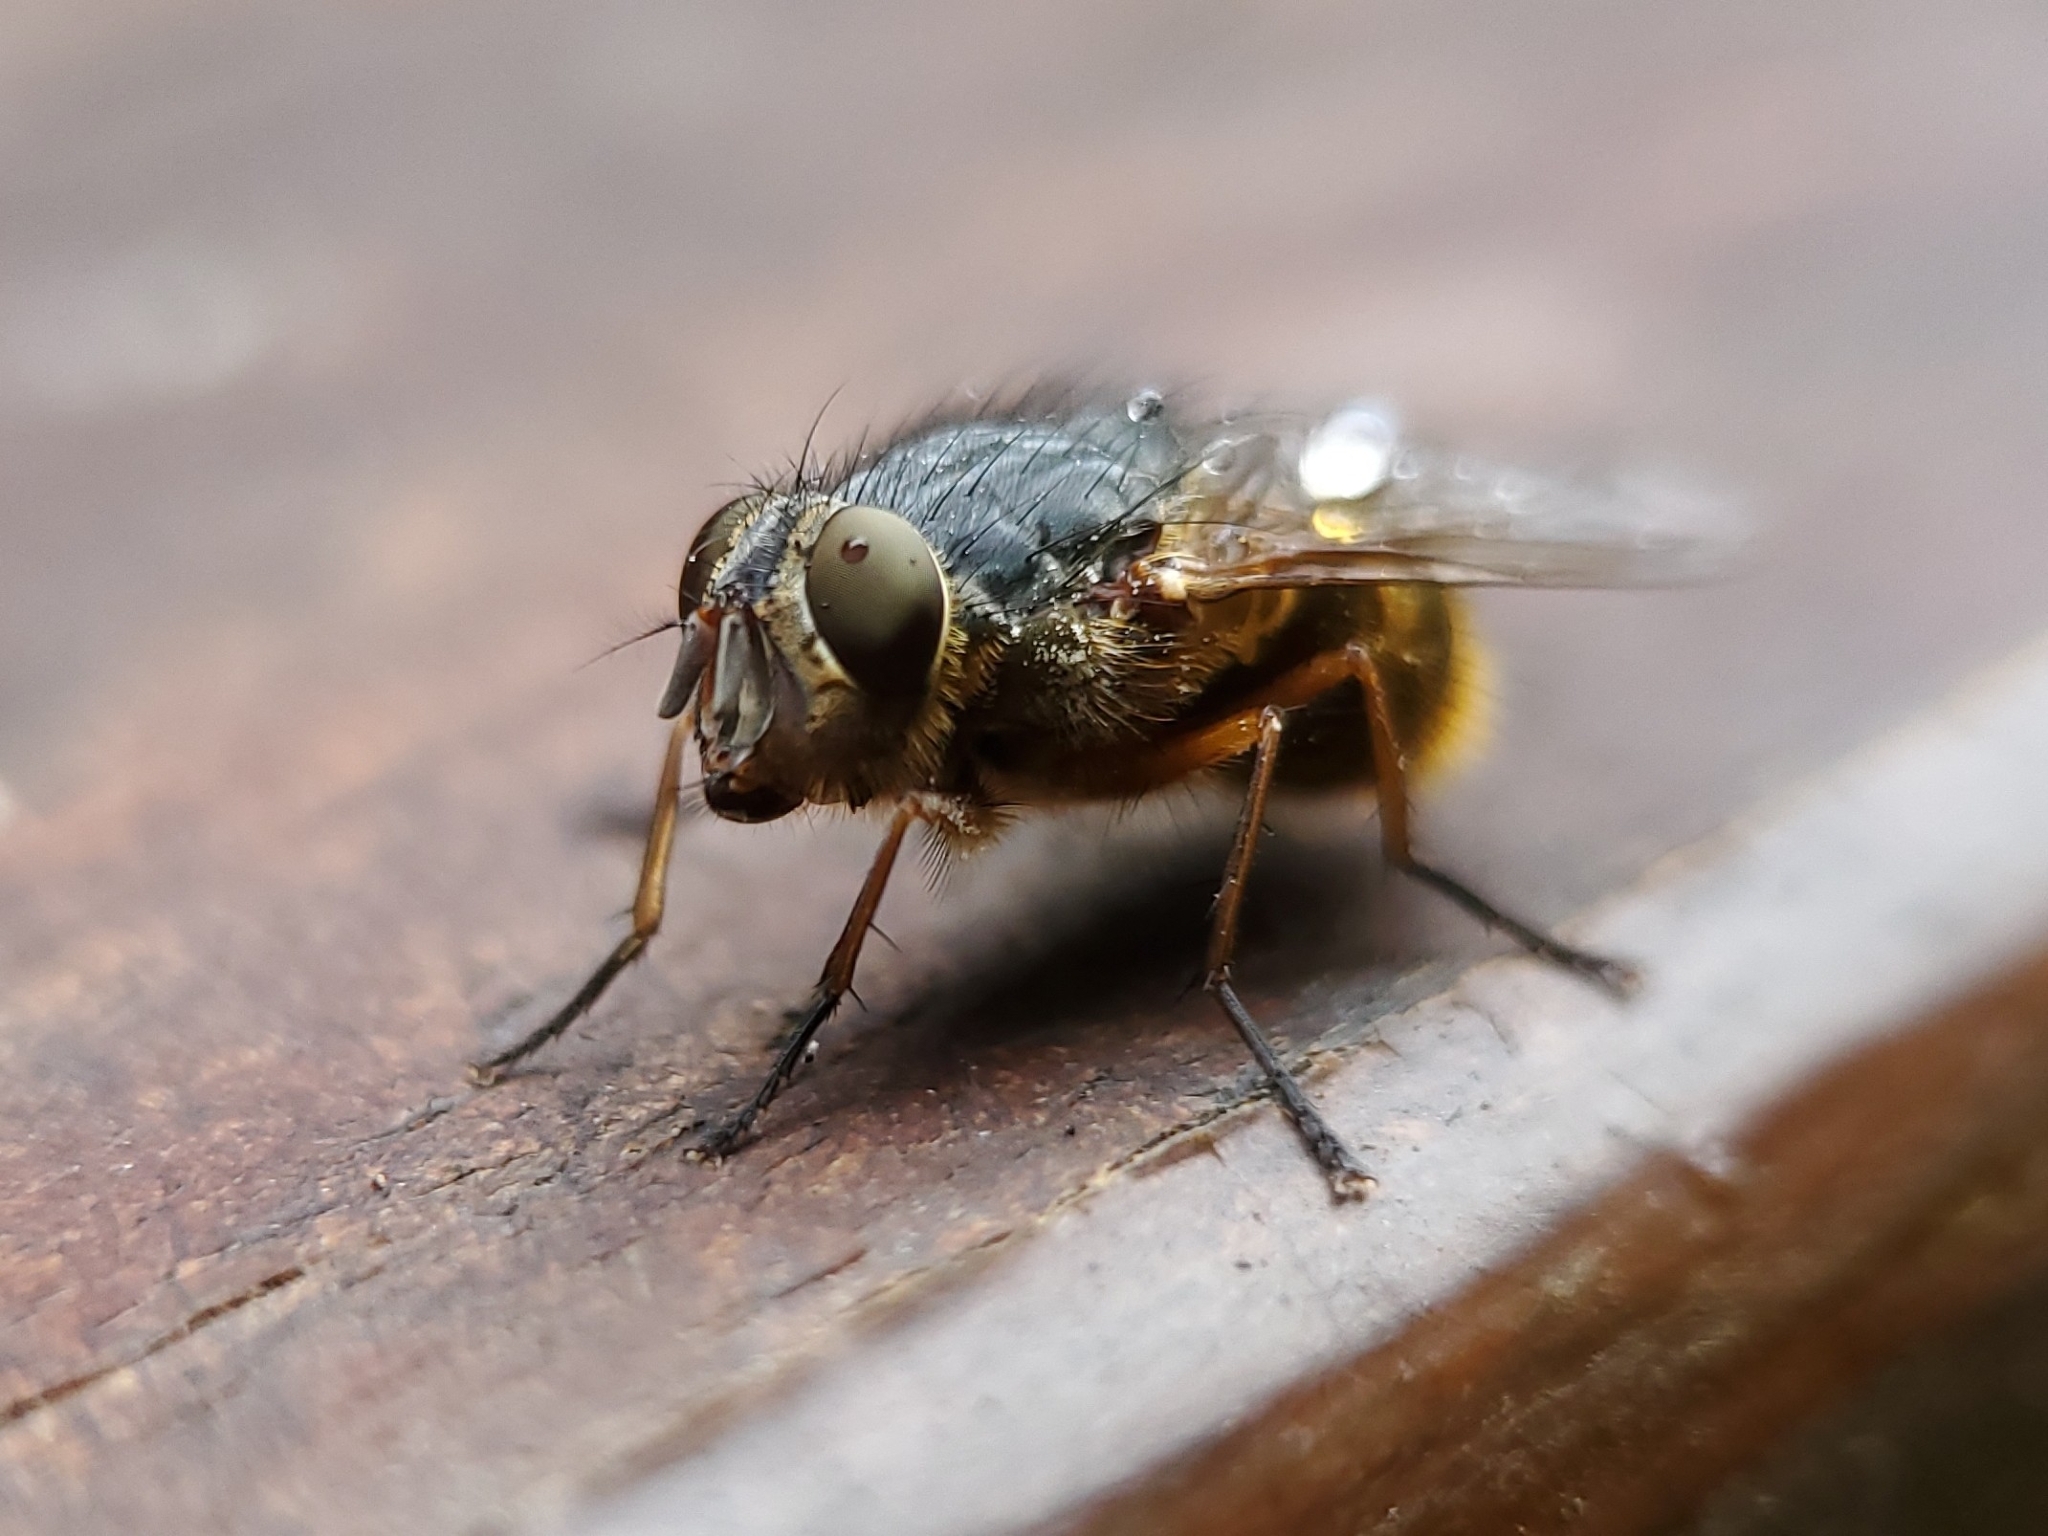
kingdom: Animalia
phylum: Arthropoda
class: Insecta
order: Diptera
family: Calliphoridae
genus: Calliphora
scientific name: Calliphora hilli
